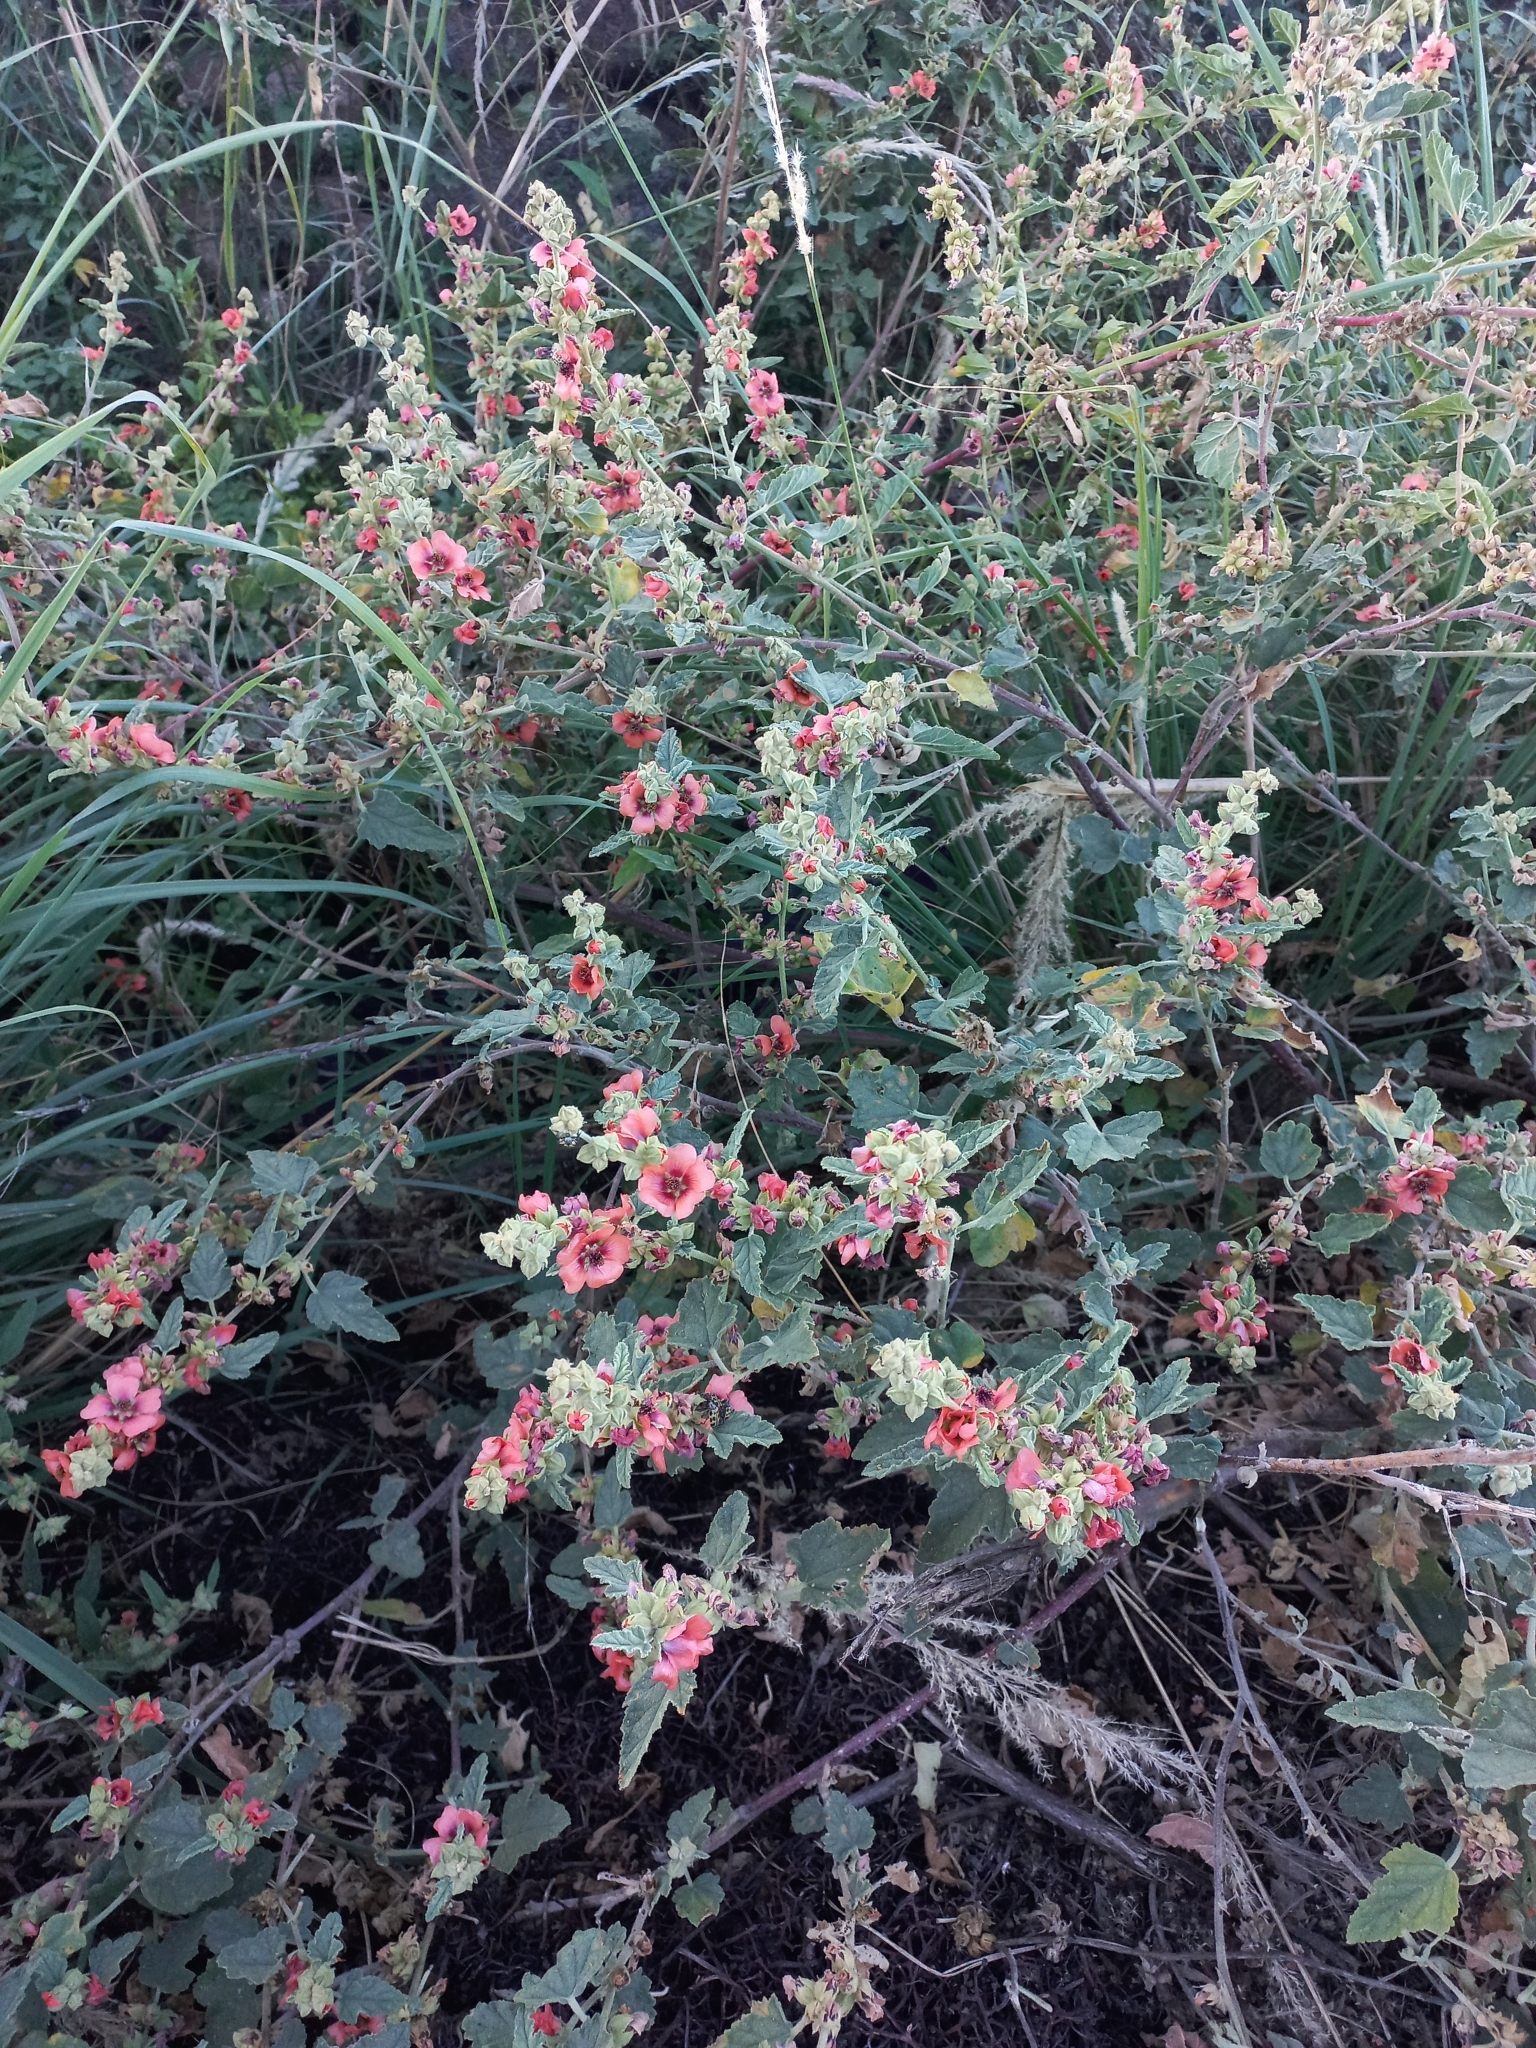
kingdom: Plantae
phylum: Tracheophyta
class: Magnoliopsida
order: Malvales
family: Malvaceae
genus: Sphaeralcea
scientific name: Sphaeralcea bonariensis
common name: Latin globemallow
